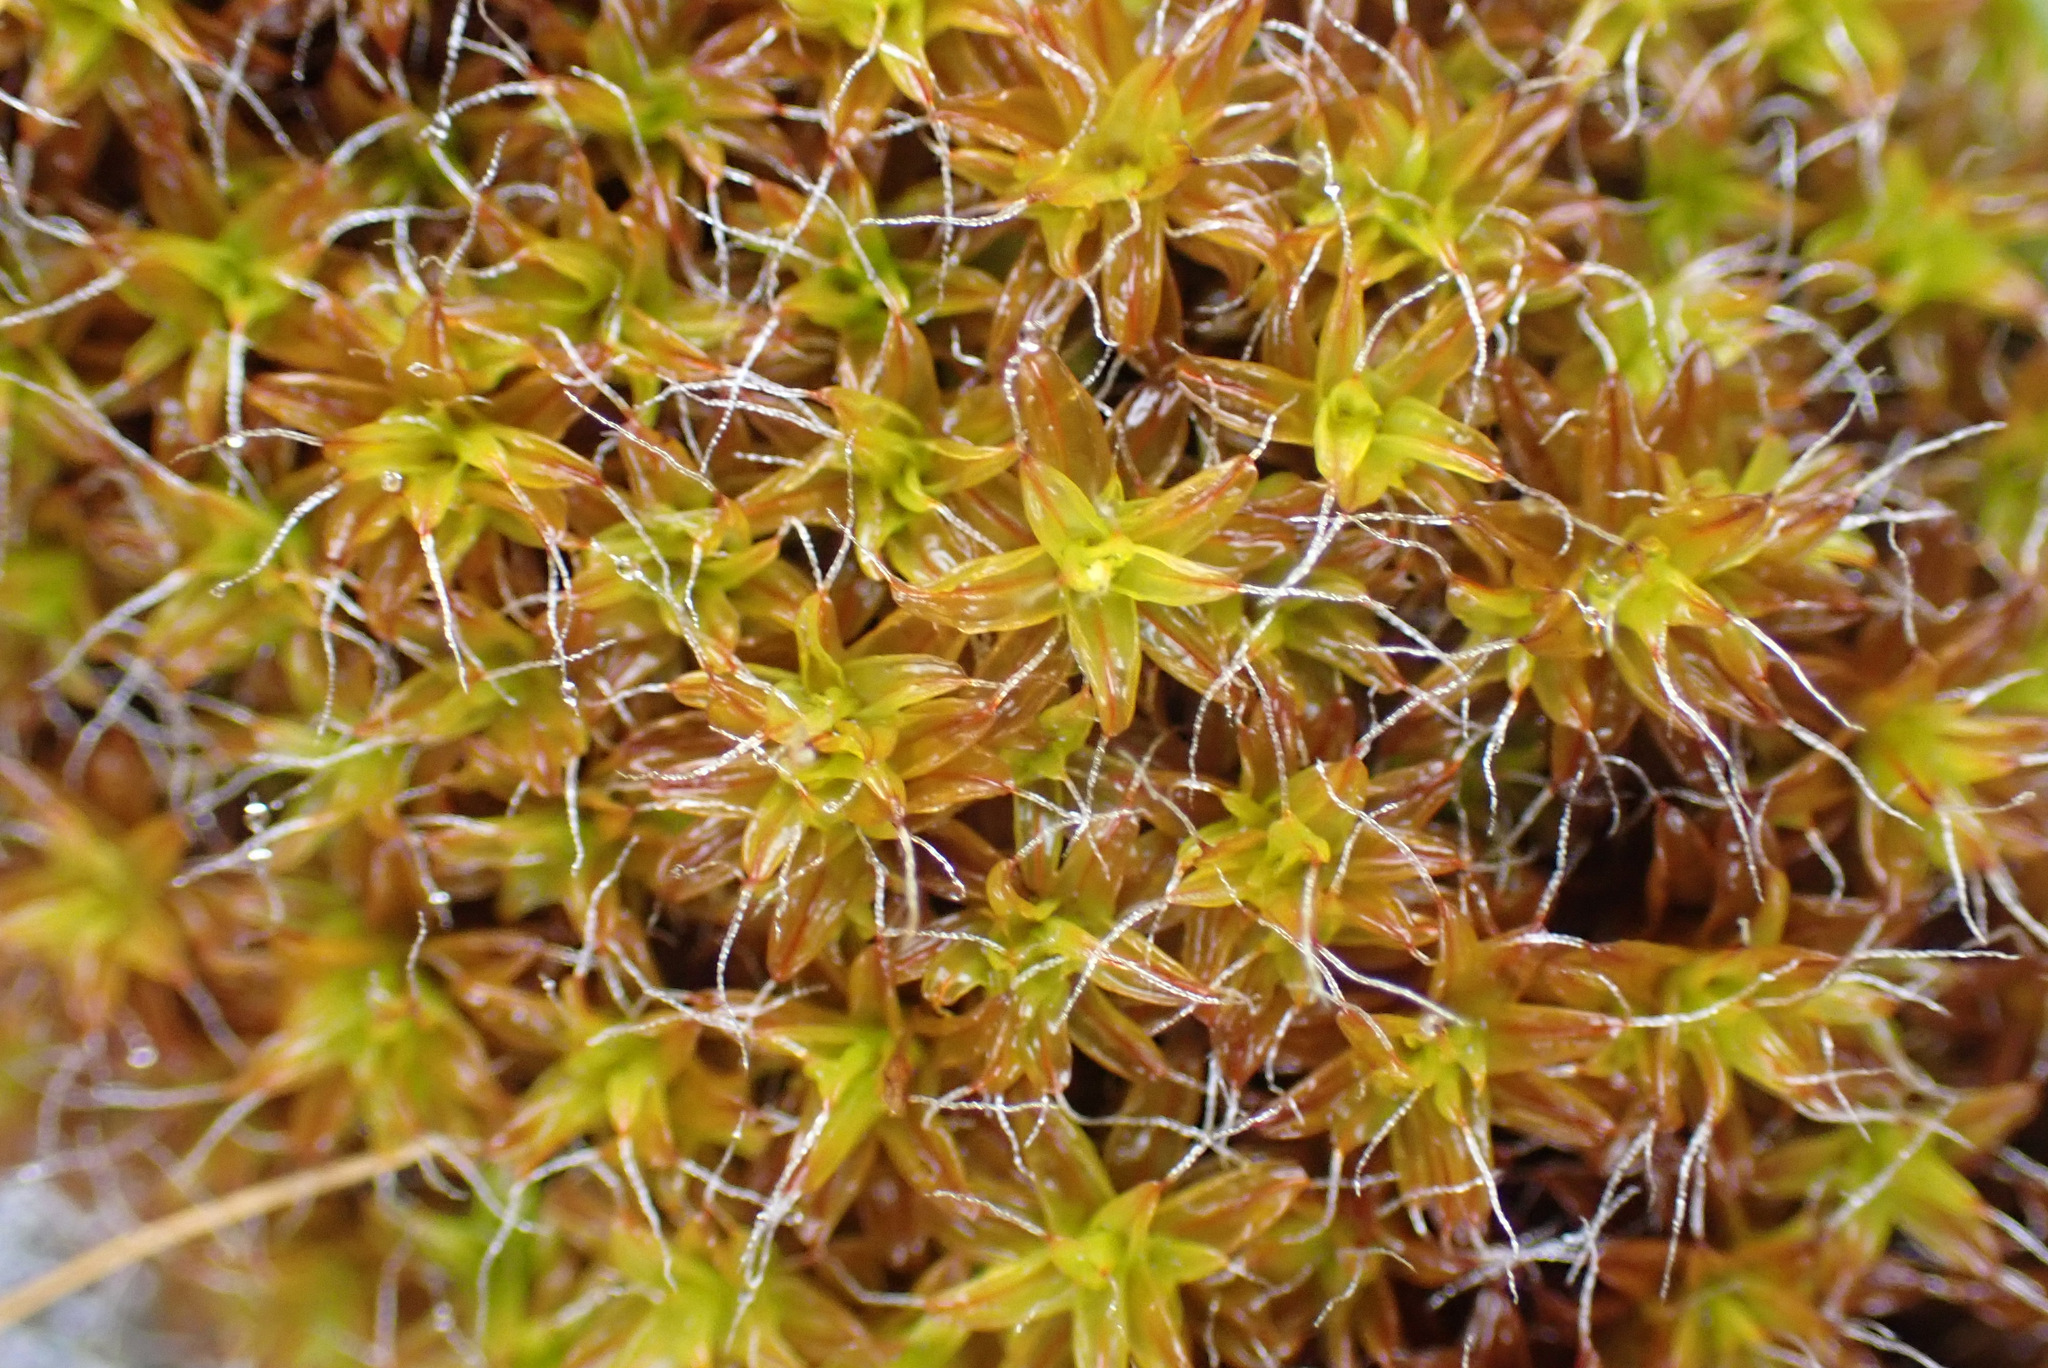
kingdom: Plantae
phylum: Bryophyta
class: Bryopsida
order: Pottiales
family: Pottiaceae
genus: Syntrichia
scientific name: Syntrichia ruralis
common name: Sidewalk screw moss
